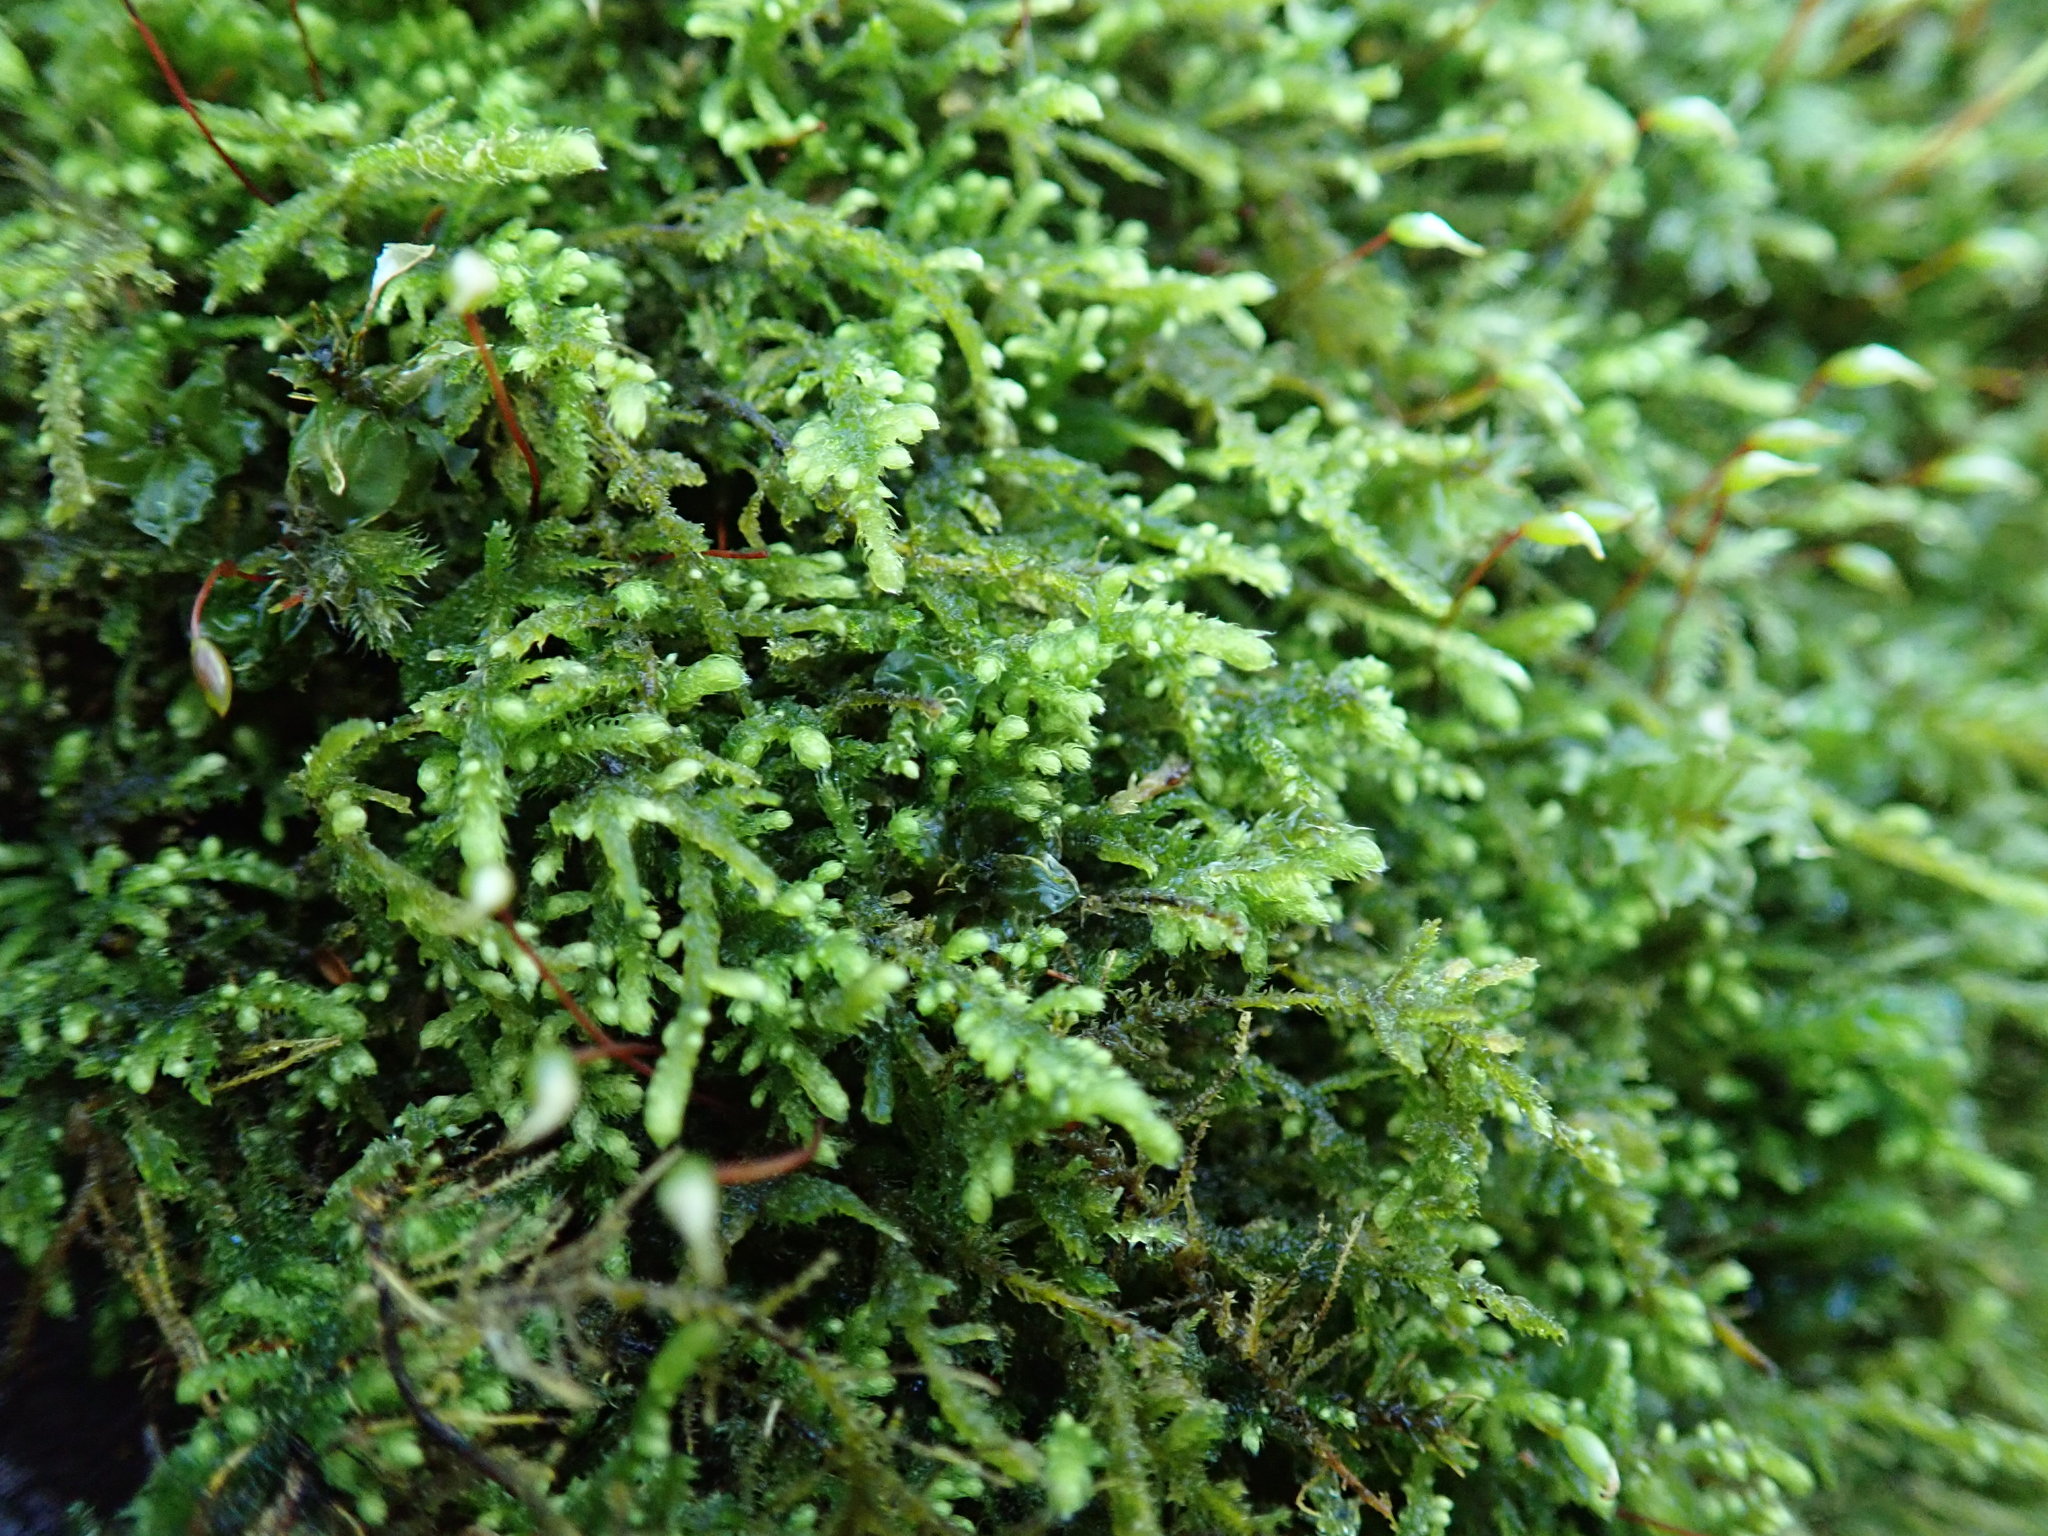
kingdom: Plantae
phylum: Bryophyta
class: Bryopsida
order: Hypnales
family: Brachytheciaceae
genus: Claopodium
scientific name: Claopodium crispifolium
